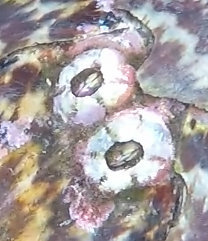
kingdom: Animalia
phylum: Arthropoda
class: Maxillopoda
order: Sessilia
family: Chelonibiidae
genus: Chelonibia
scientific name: Chelonibia testudinaria
